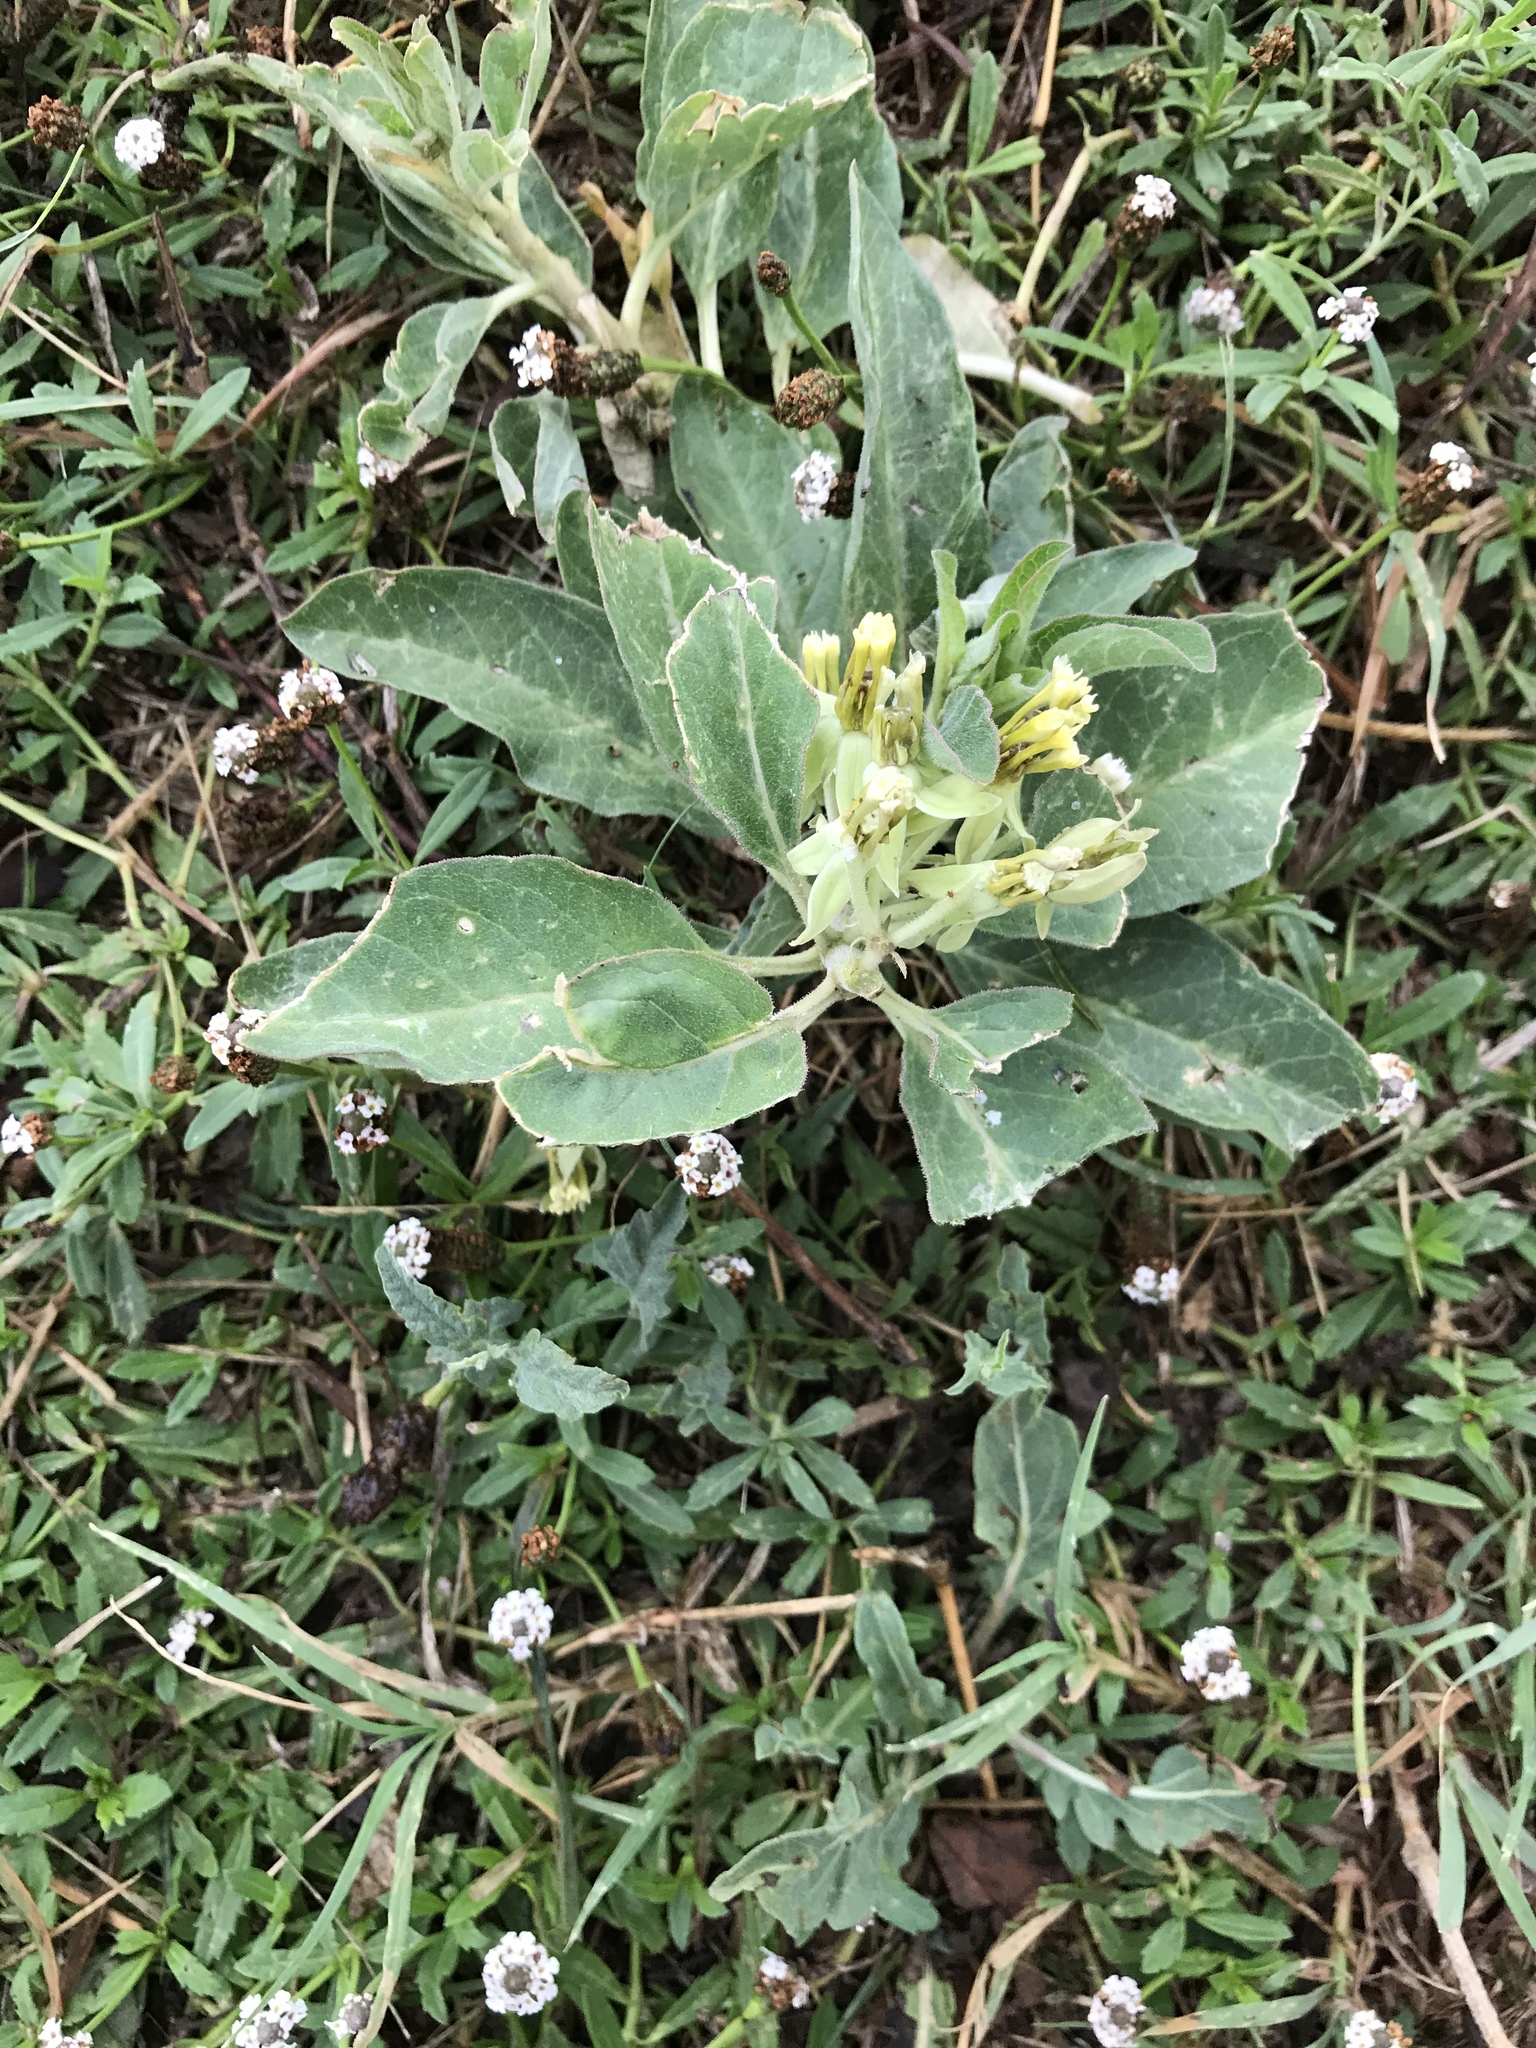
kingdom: Plantae
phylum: Tracheophyta
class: Magnoliopsida
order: Gentianales
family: Apocynaceae
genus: Asclepias
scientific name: Asclepias oenotheroides
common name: Zizotes milkweed
